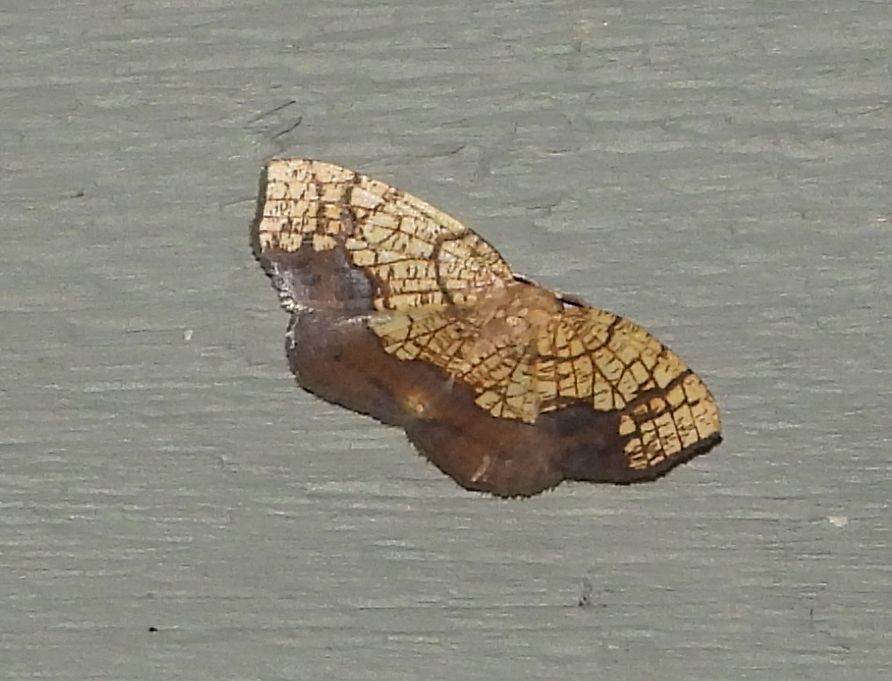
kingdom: Animalia
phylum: Arthropoda
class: Insecta
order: Lepidoptera
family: Geometridae
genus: Nematocampa
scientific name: Nematocampa resistaria
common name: Horned spanworm moth
